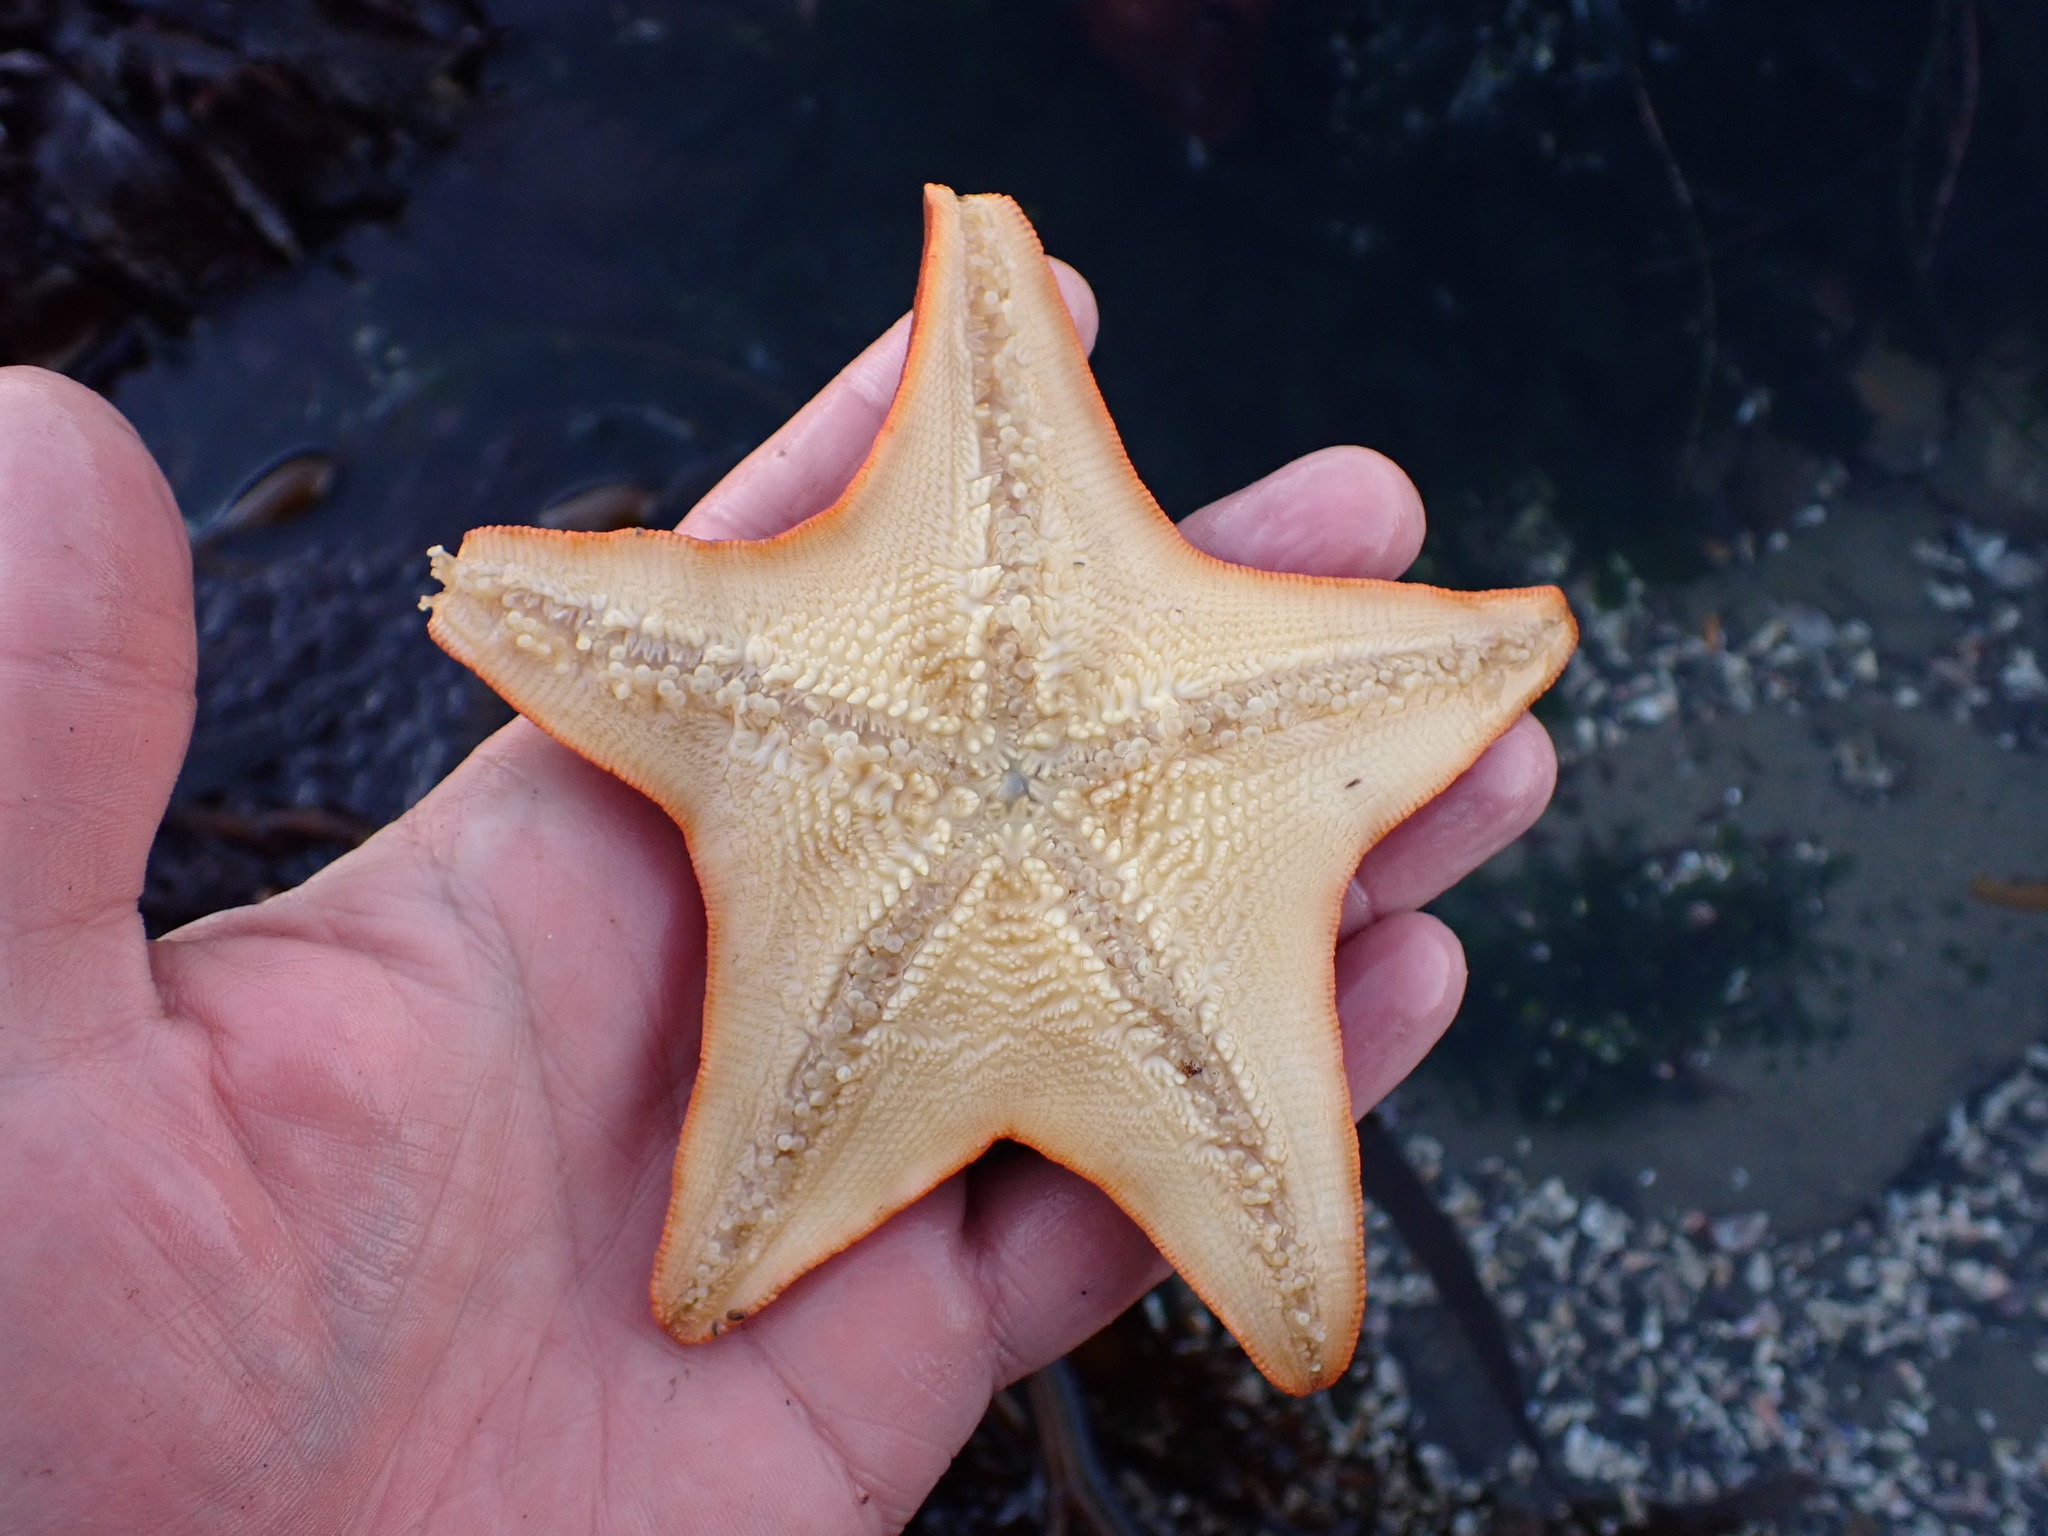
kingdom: Animalia
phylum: Echinodermata
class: Asteroidea
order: Valvatida
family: Asterinidae
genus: Patiria
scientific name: Patiria miniata
